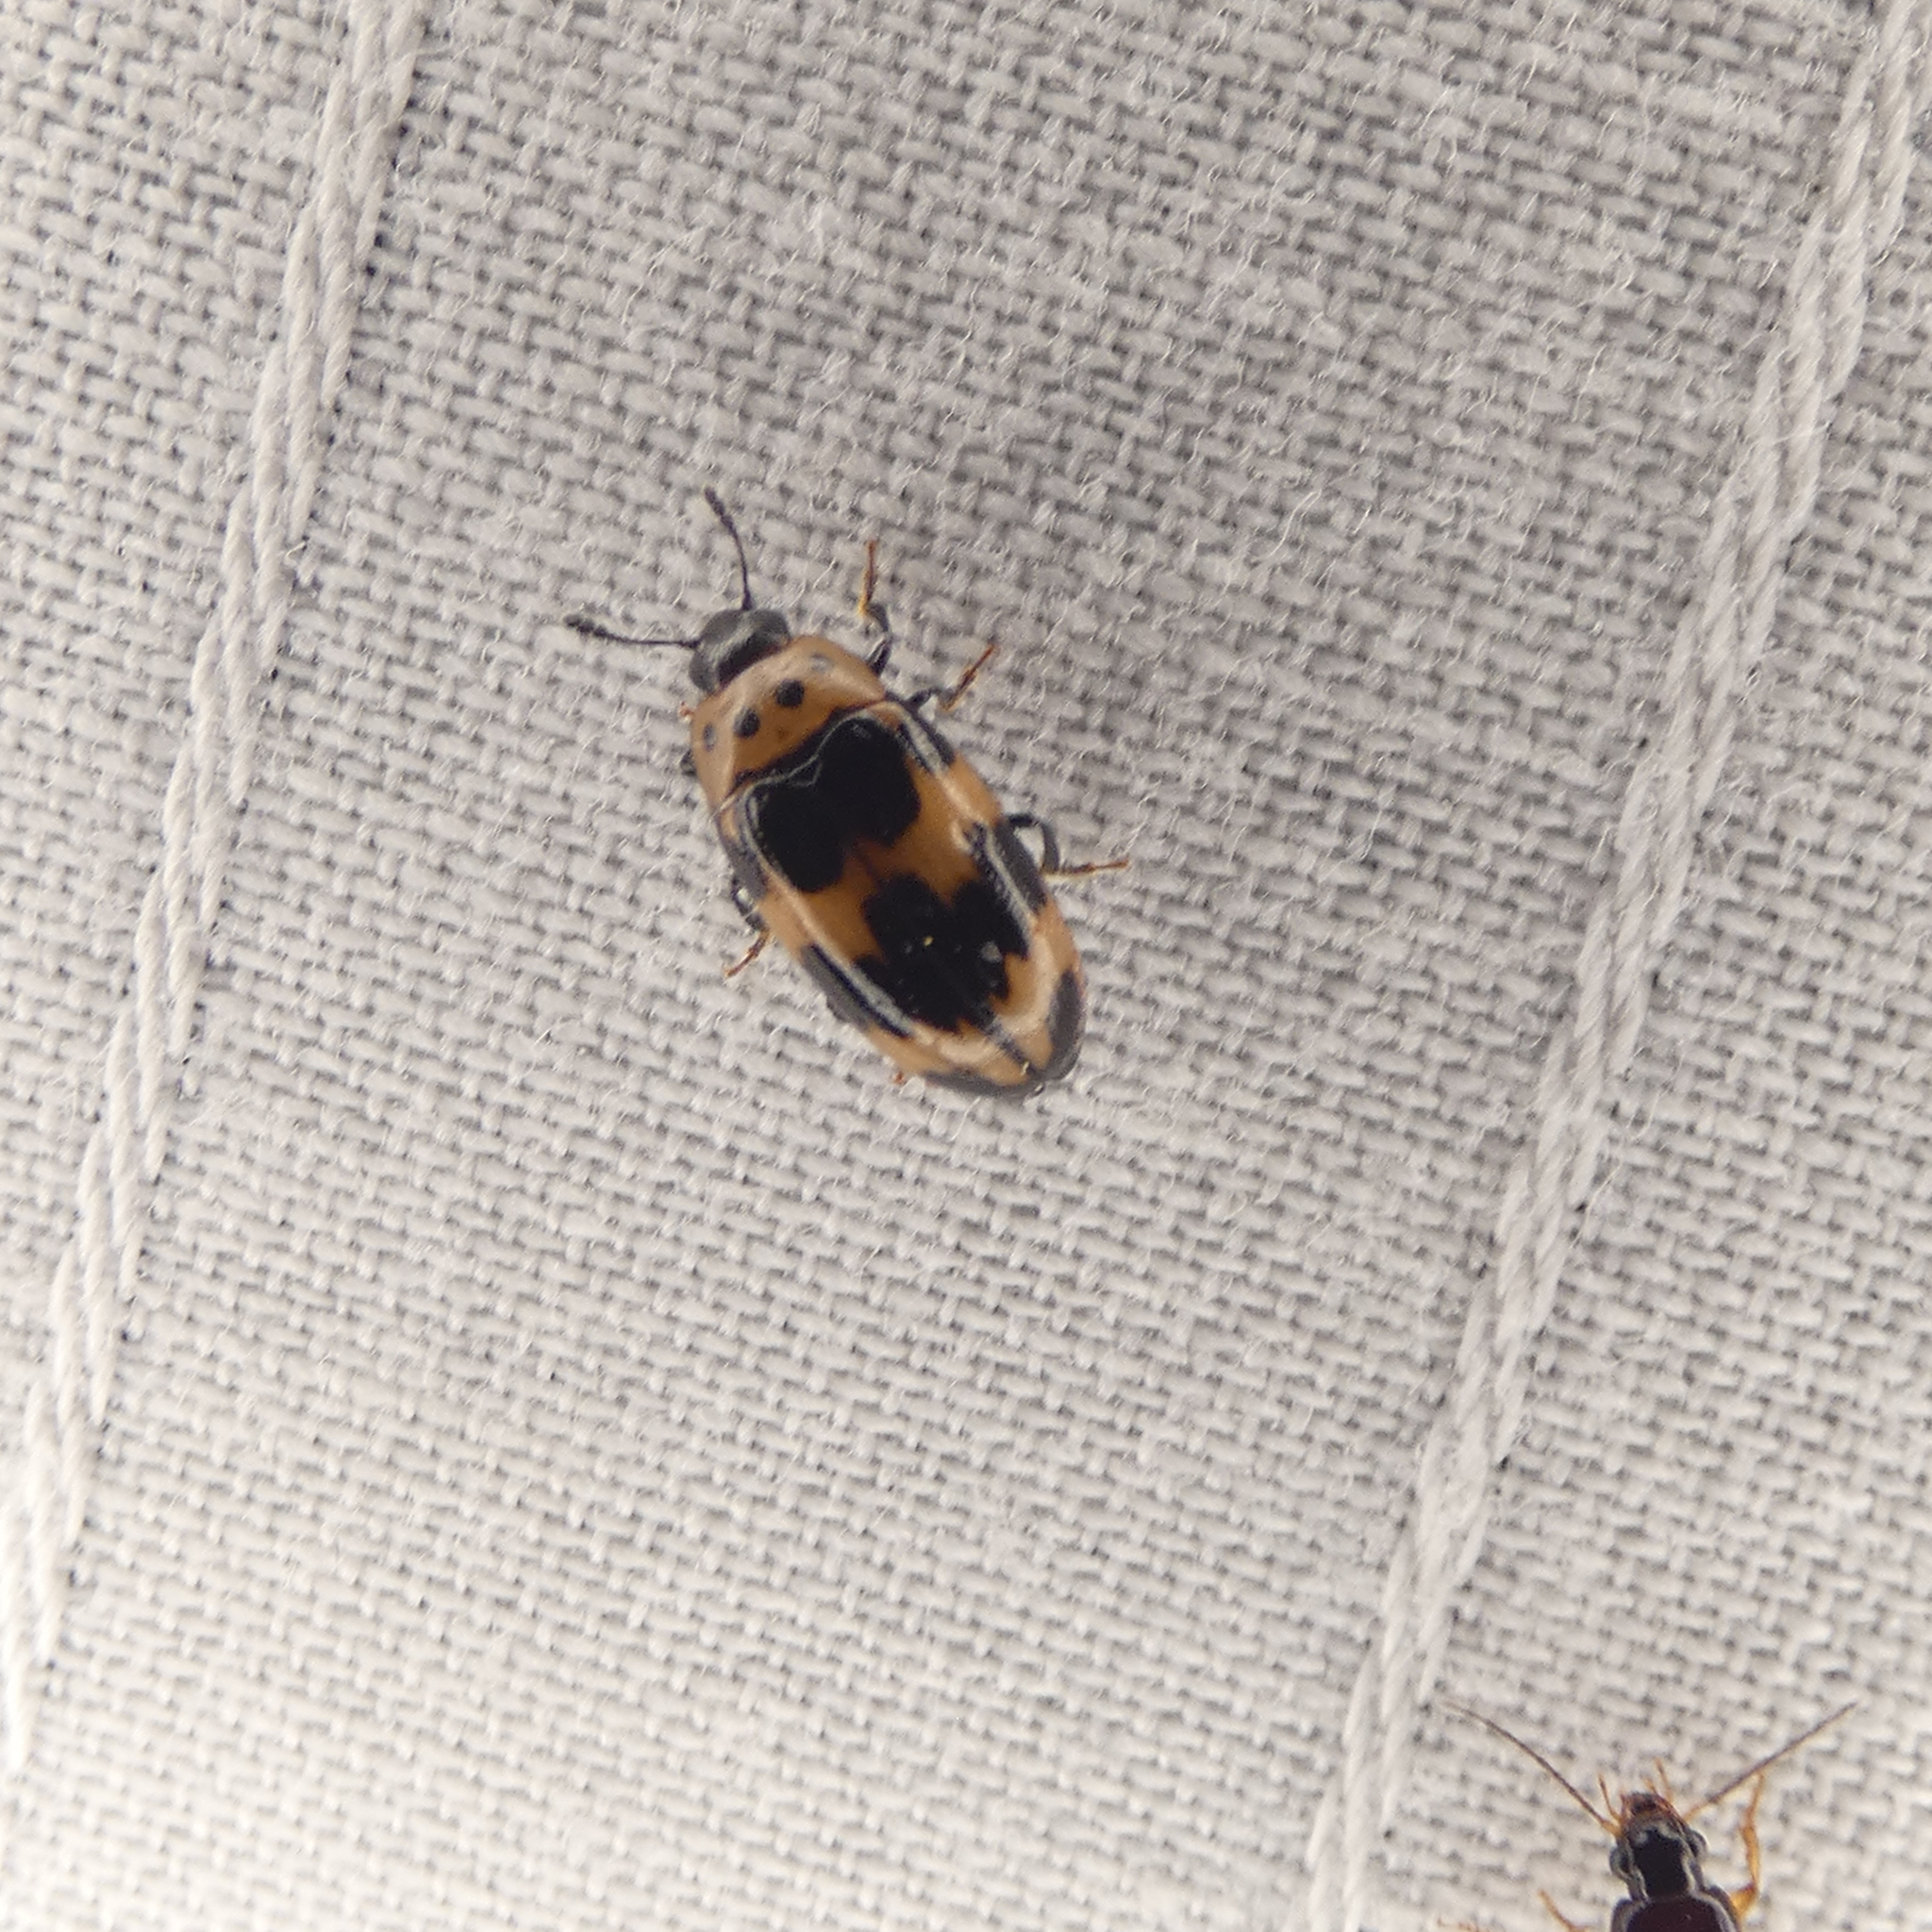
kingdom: Animalia
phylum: Arthropoda
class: Insecta
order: Coleoptera
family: Erotylidae
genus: Ischyrus
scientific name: Ischyrus quadripunctatus
